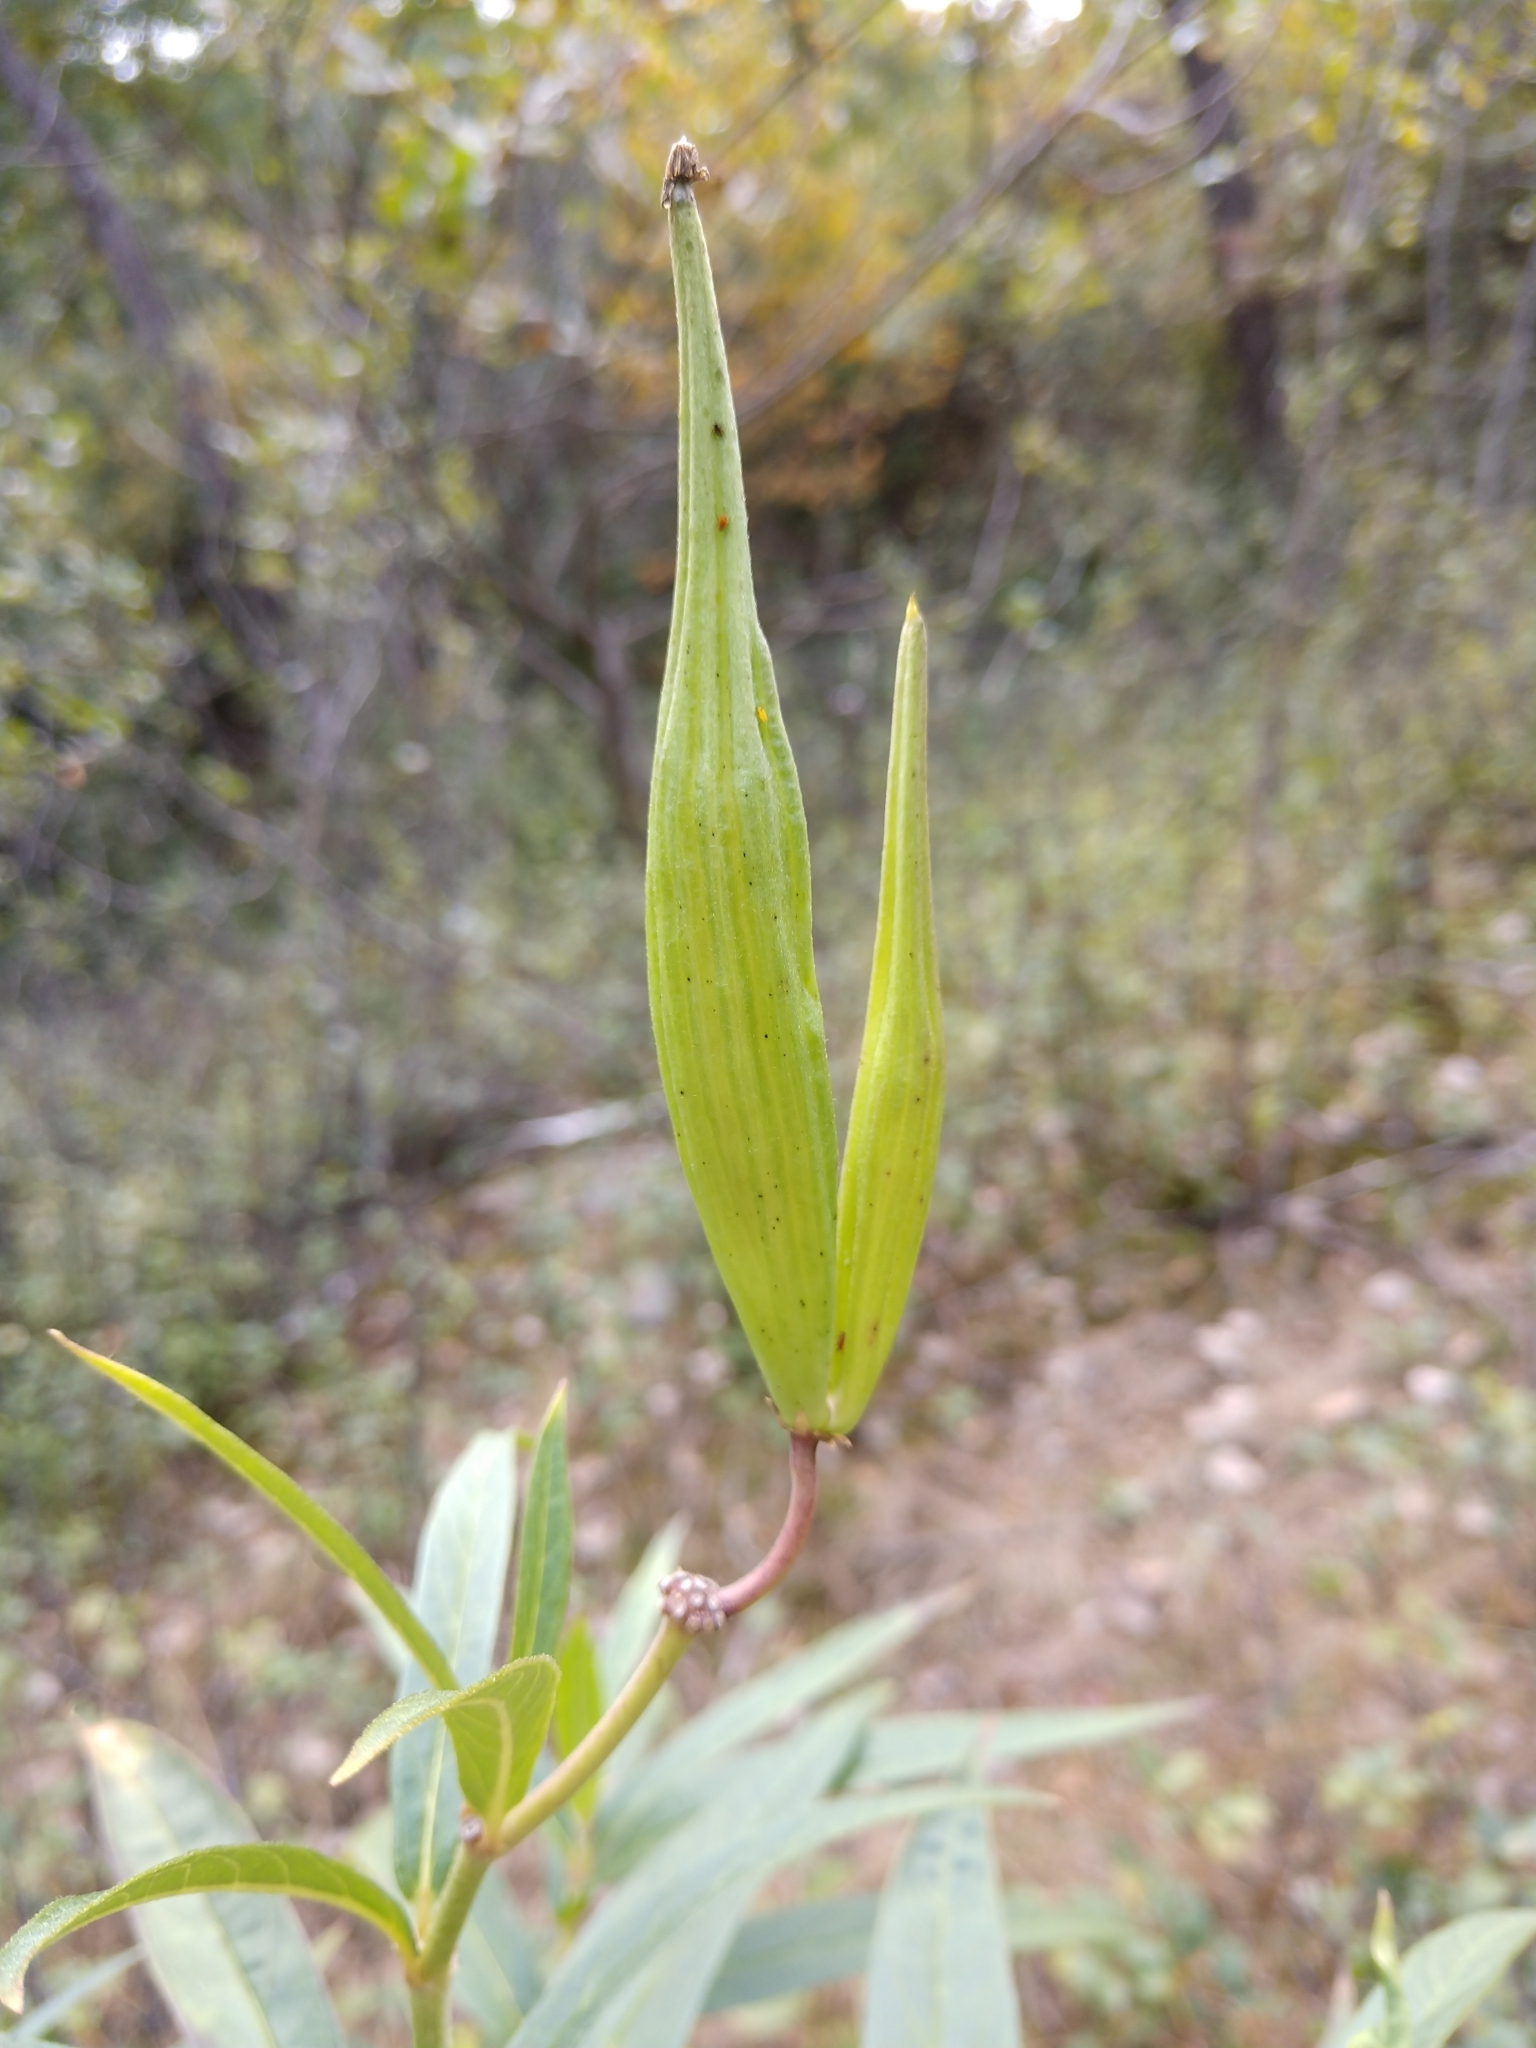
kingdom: Plantae
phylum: Tracheophyta
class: Magnoliopsida
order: Gentianales
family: Apocynaceae
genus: Asclepias
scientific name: Asclepias incarnata
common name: Swamp milkweed
